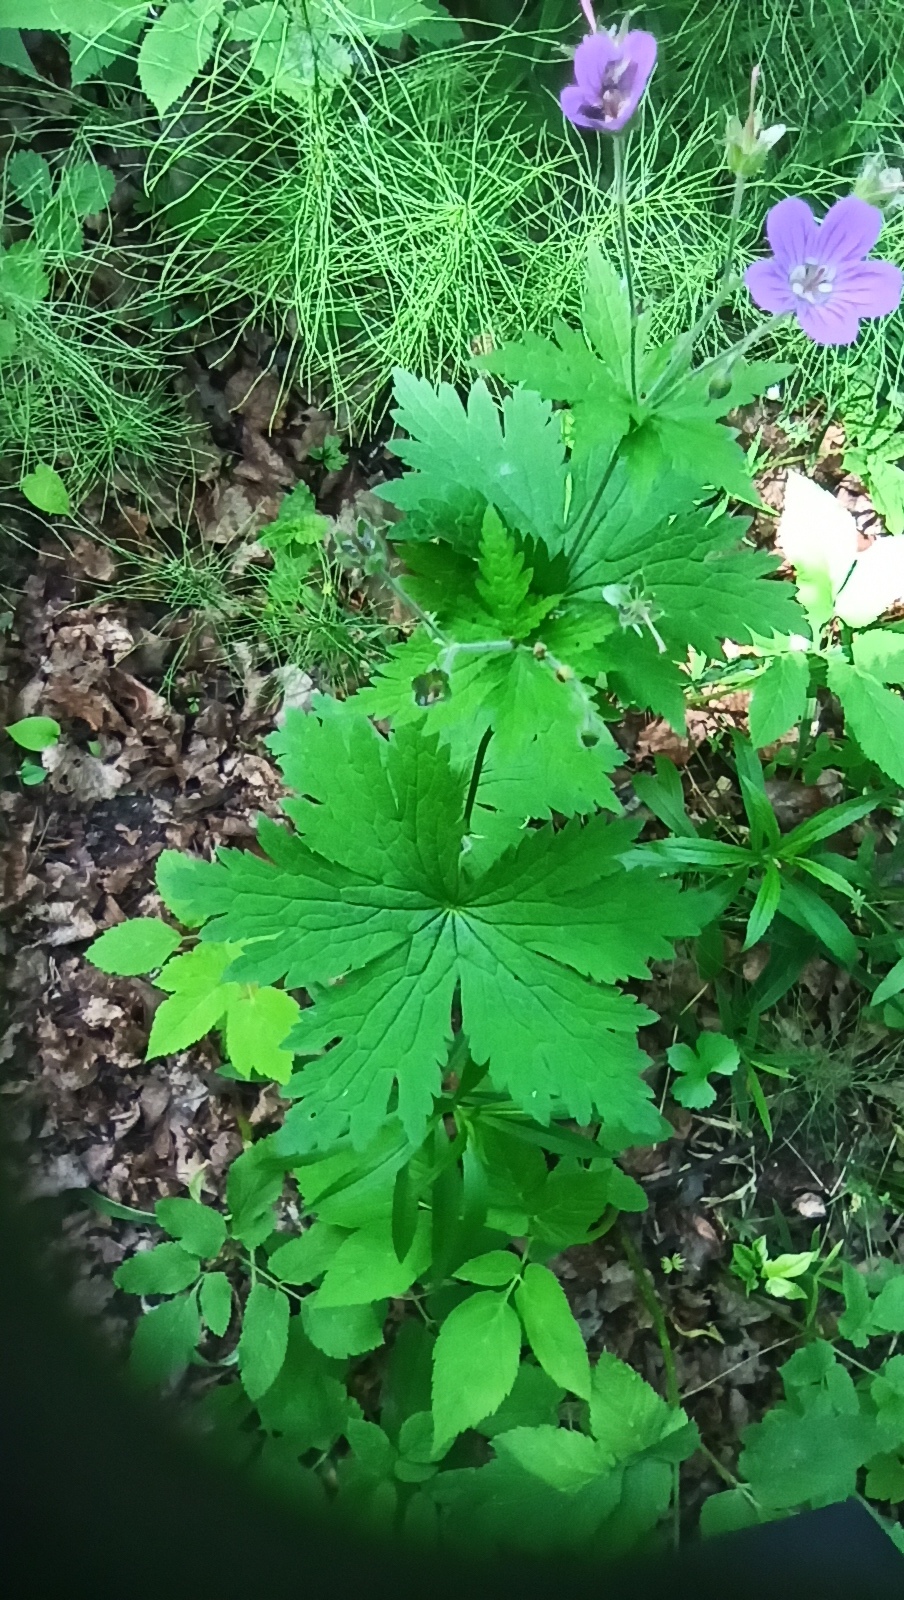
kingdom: Plantae
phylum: Tracheophyta
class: Magnoliopsida
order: Geraniales
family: Geraniaceae
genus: Geranium
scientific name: Geranium sylvaticum
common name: Wood crane's-bill
